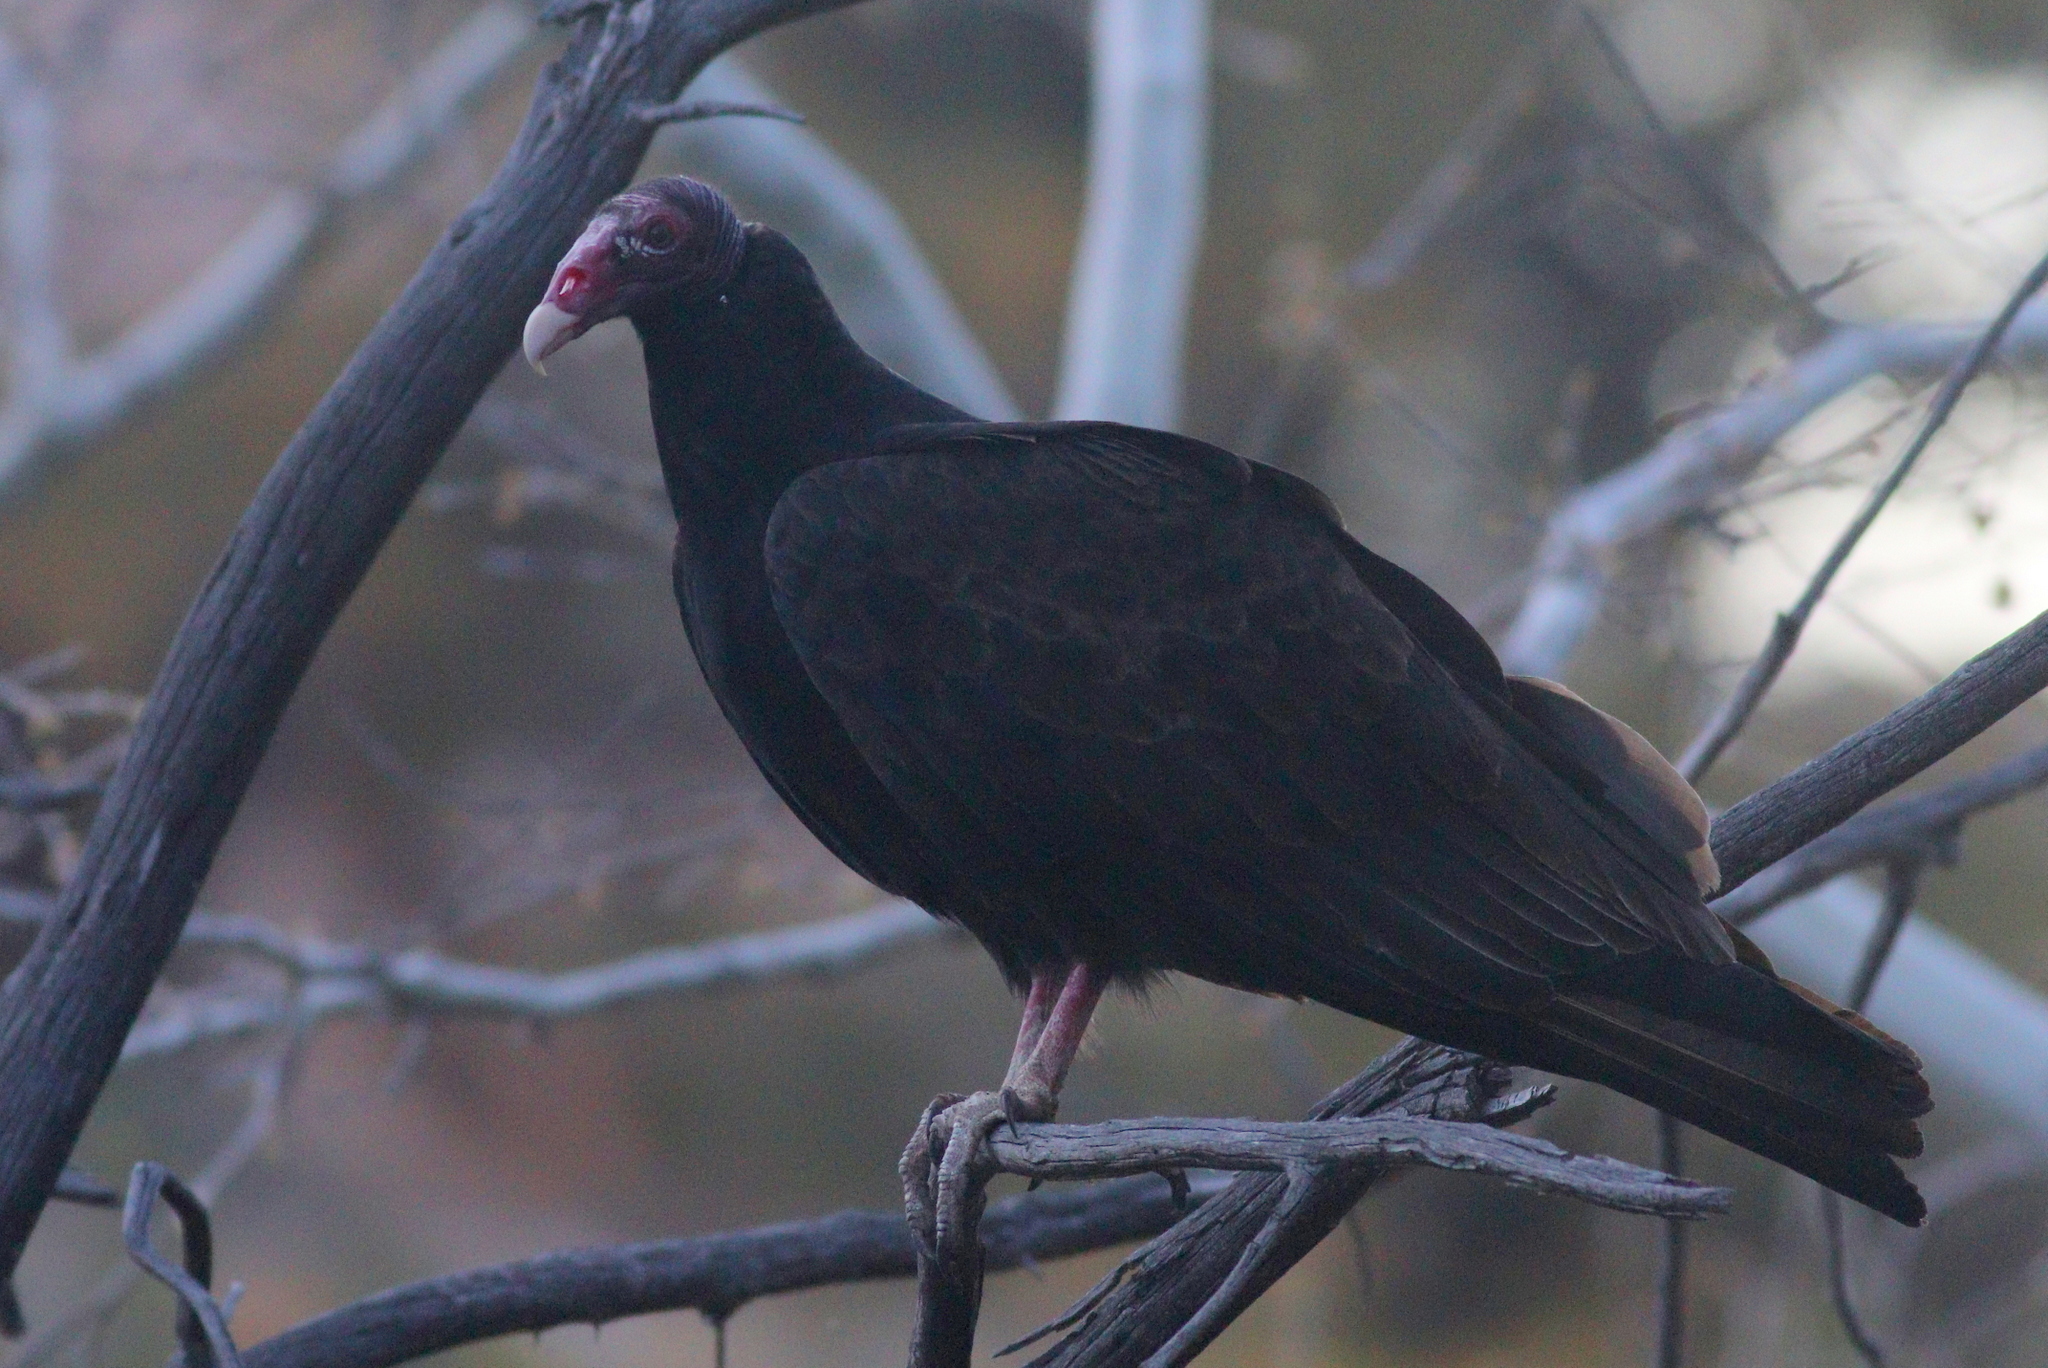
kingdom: Animalia
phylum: Chordata
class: Aves
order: Accipitriformes
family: Cathartidae
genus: Cathartes
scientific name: Cathartes aura
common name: Turkey vulture
